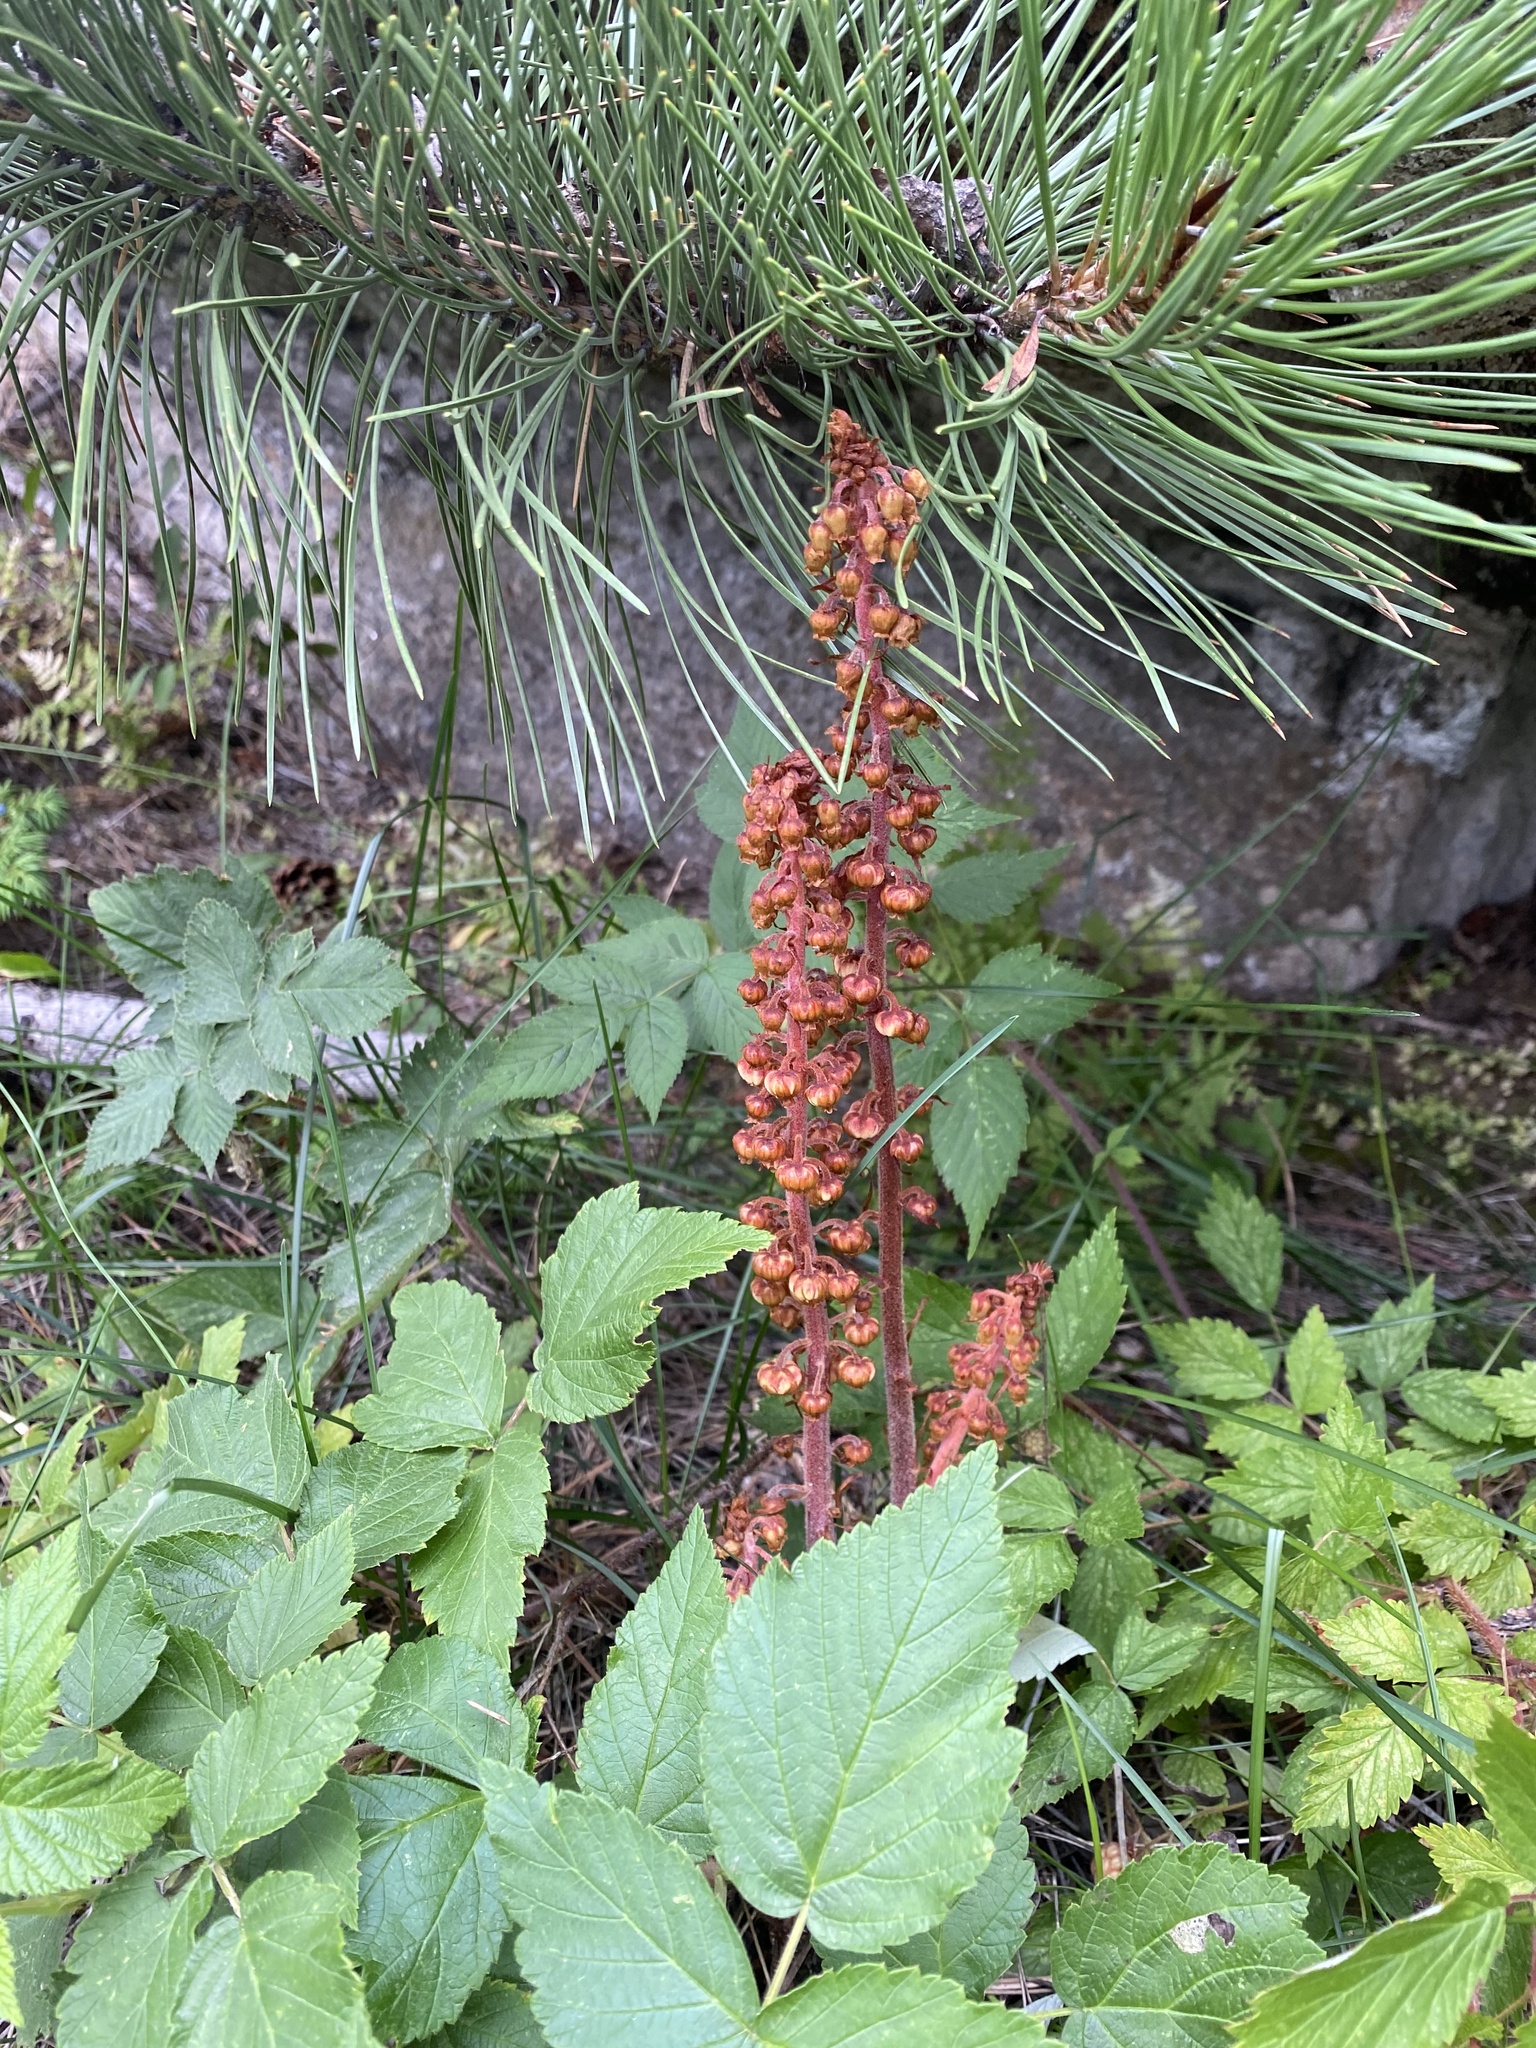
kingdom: Plantae
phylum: Tracheophyta
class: Magnoliopsida
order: Ericales
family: Ericaceae
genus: Pterospora
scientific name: Pterospora andromedea
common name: Giant bird's-nest
